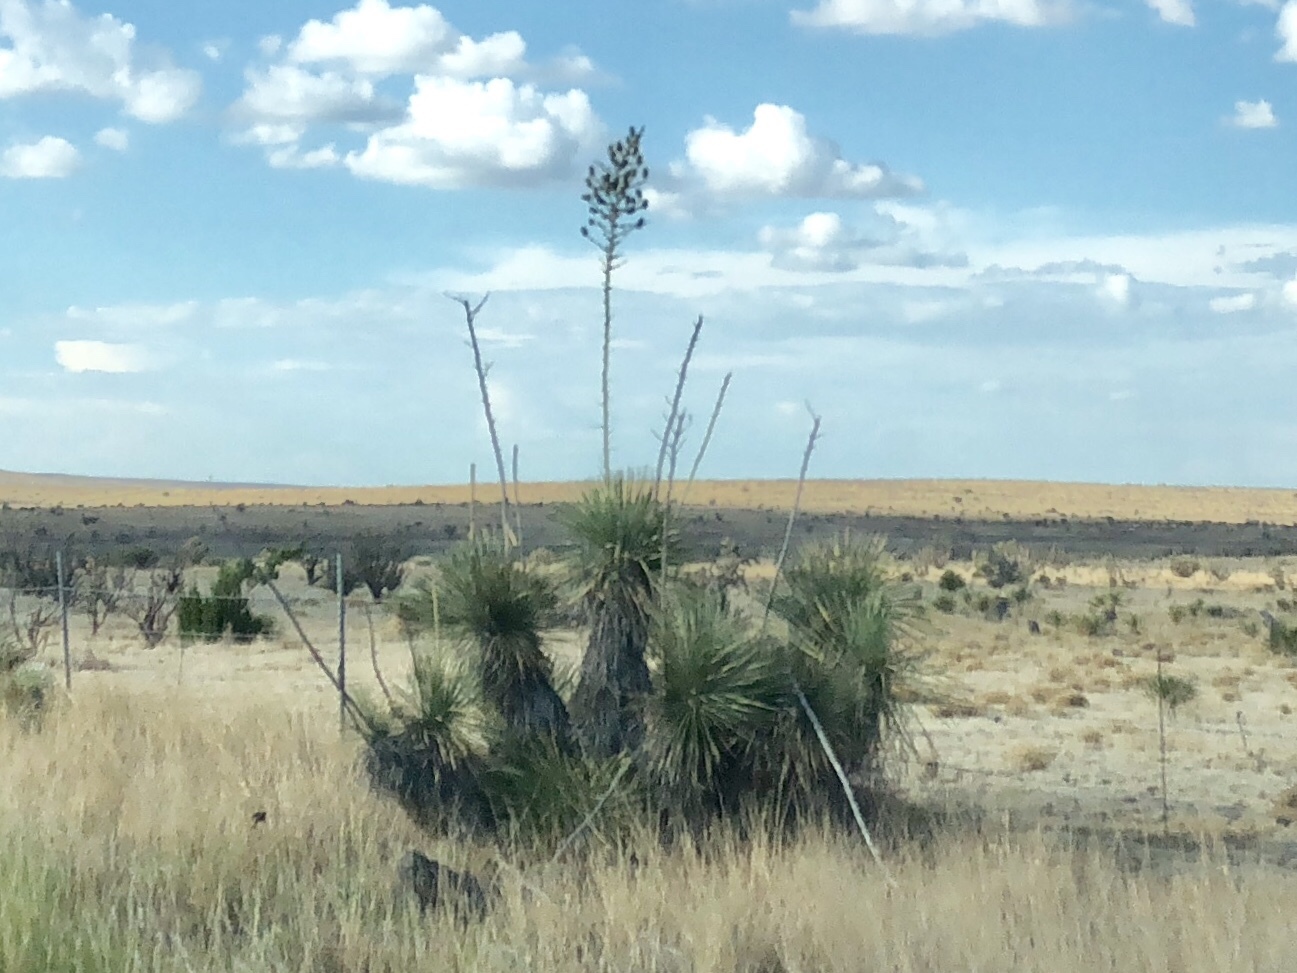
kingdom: Plantae
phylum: Tracheophyta
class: Liliopsida
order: Asparagales
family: Asparagaceae
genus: Yucca
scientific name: Yucca elata
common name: Palmella
